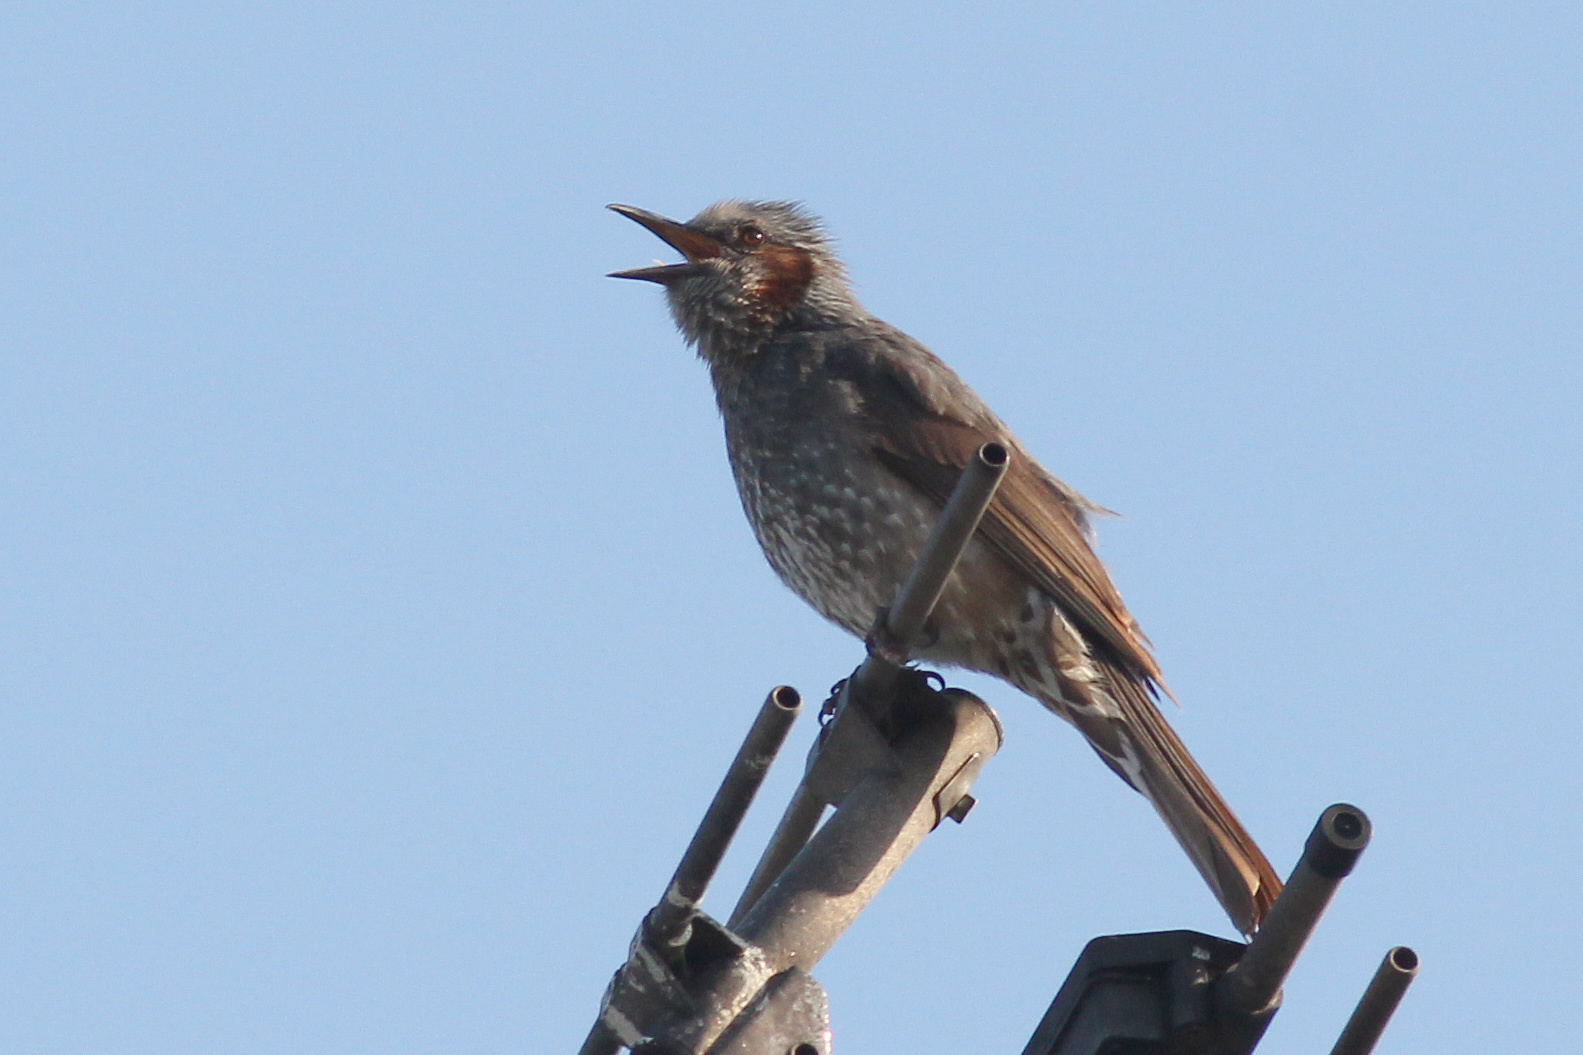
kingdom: Animalia
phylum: Chordata
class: Aves
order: Passeriformes
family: Pycnonotidae
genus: Hypsipetes
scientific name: Hypsipetes amaurotis
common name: Brown-eared bulbul
